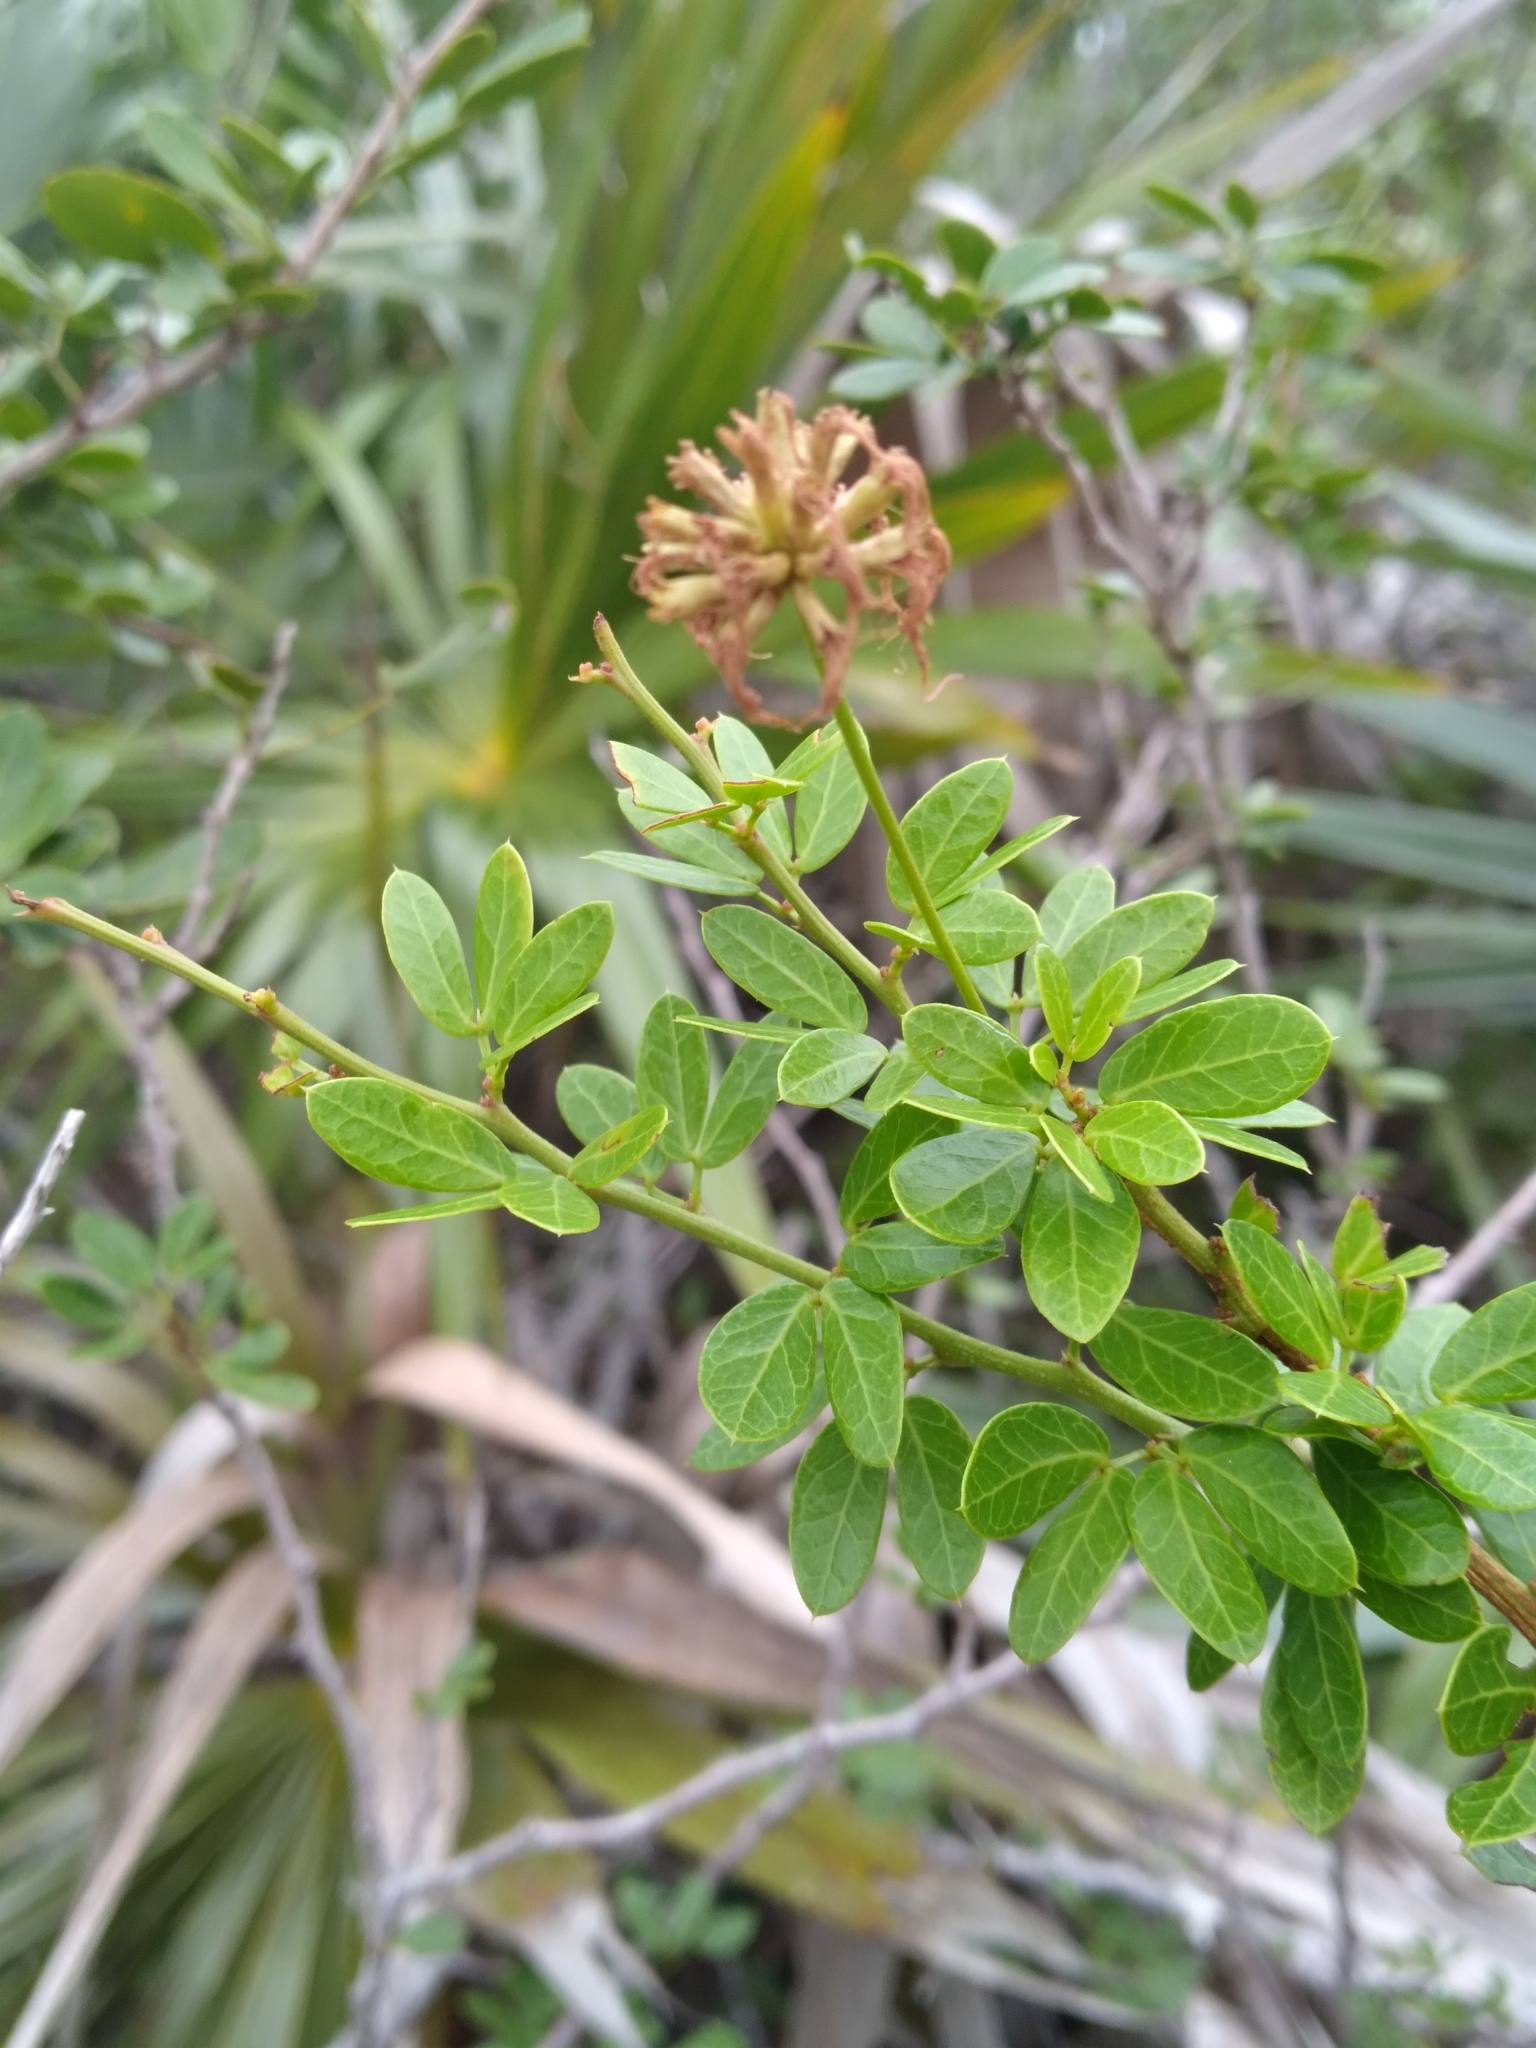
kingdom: Plantae
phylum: Tracheophyta
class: Magnoliopsida
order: Fabales
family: Fabaceae
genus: Pithecellobium
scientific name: Pithecellobium bahamense
